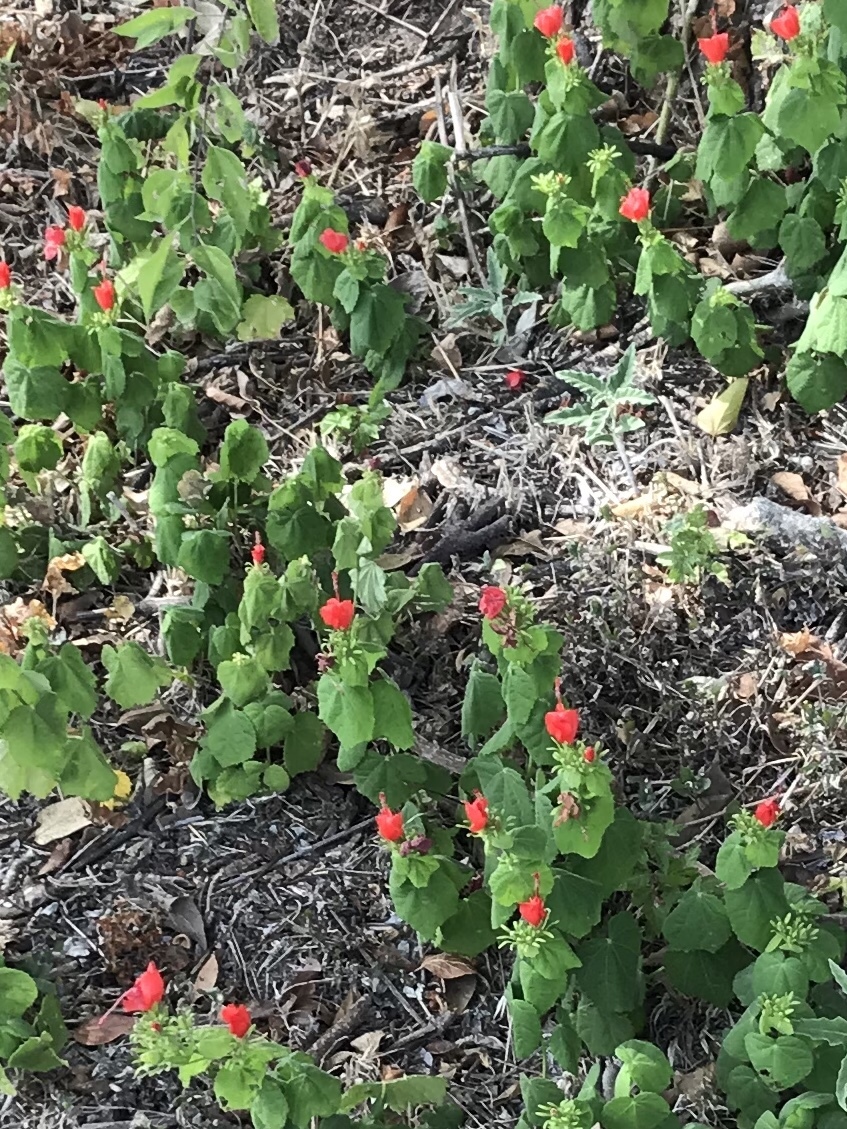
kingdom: Plantae
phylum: Tracheophyta
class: Magnoliopsida
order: Malvales
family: Malvaceae
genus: Malvaviscus
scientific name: Malvaviscus arboreus
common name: Wax mallow
